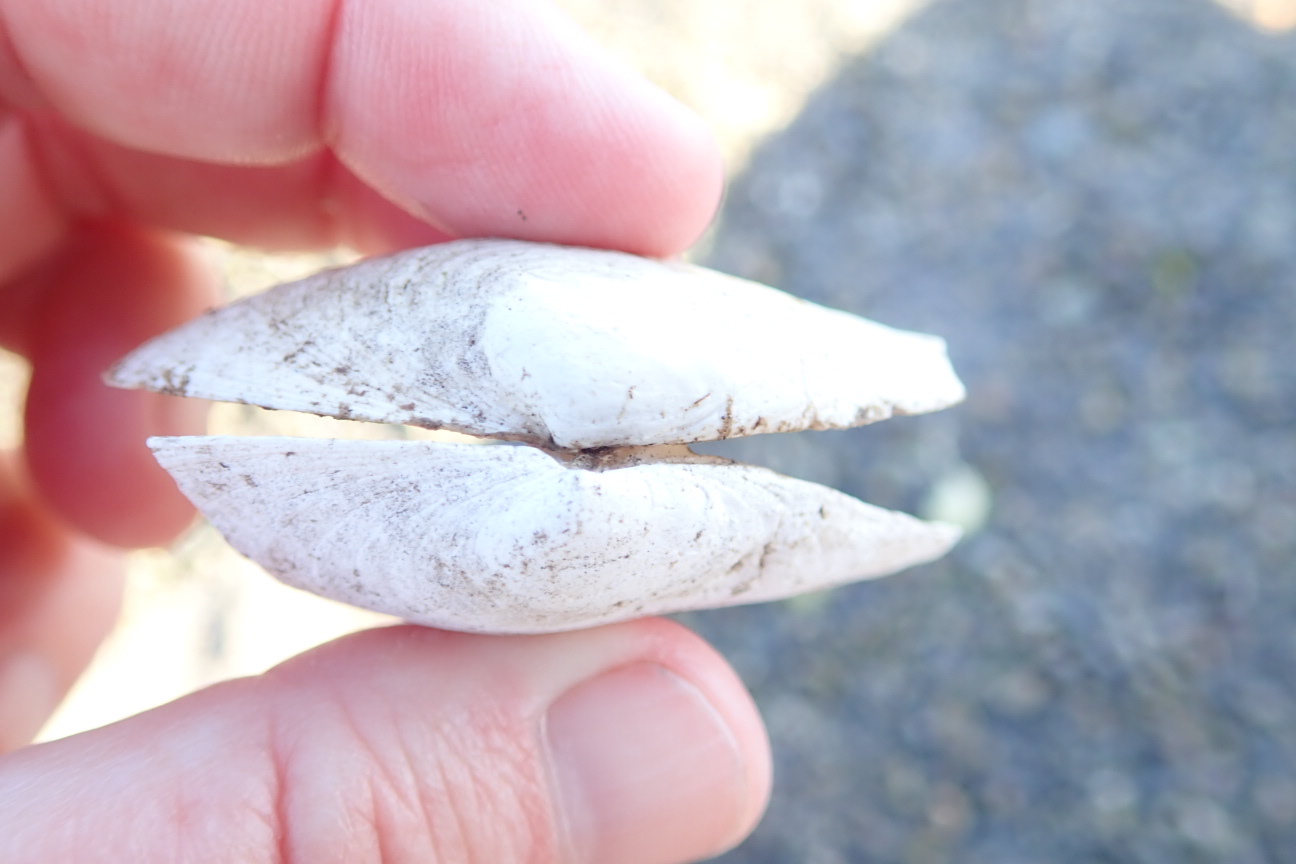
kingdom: Animalia
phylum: Mollusca
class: Bivalvia
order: Myida
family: Myidae
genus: Mya
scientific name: Mya arenaria
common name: Soft-shelled clam
